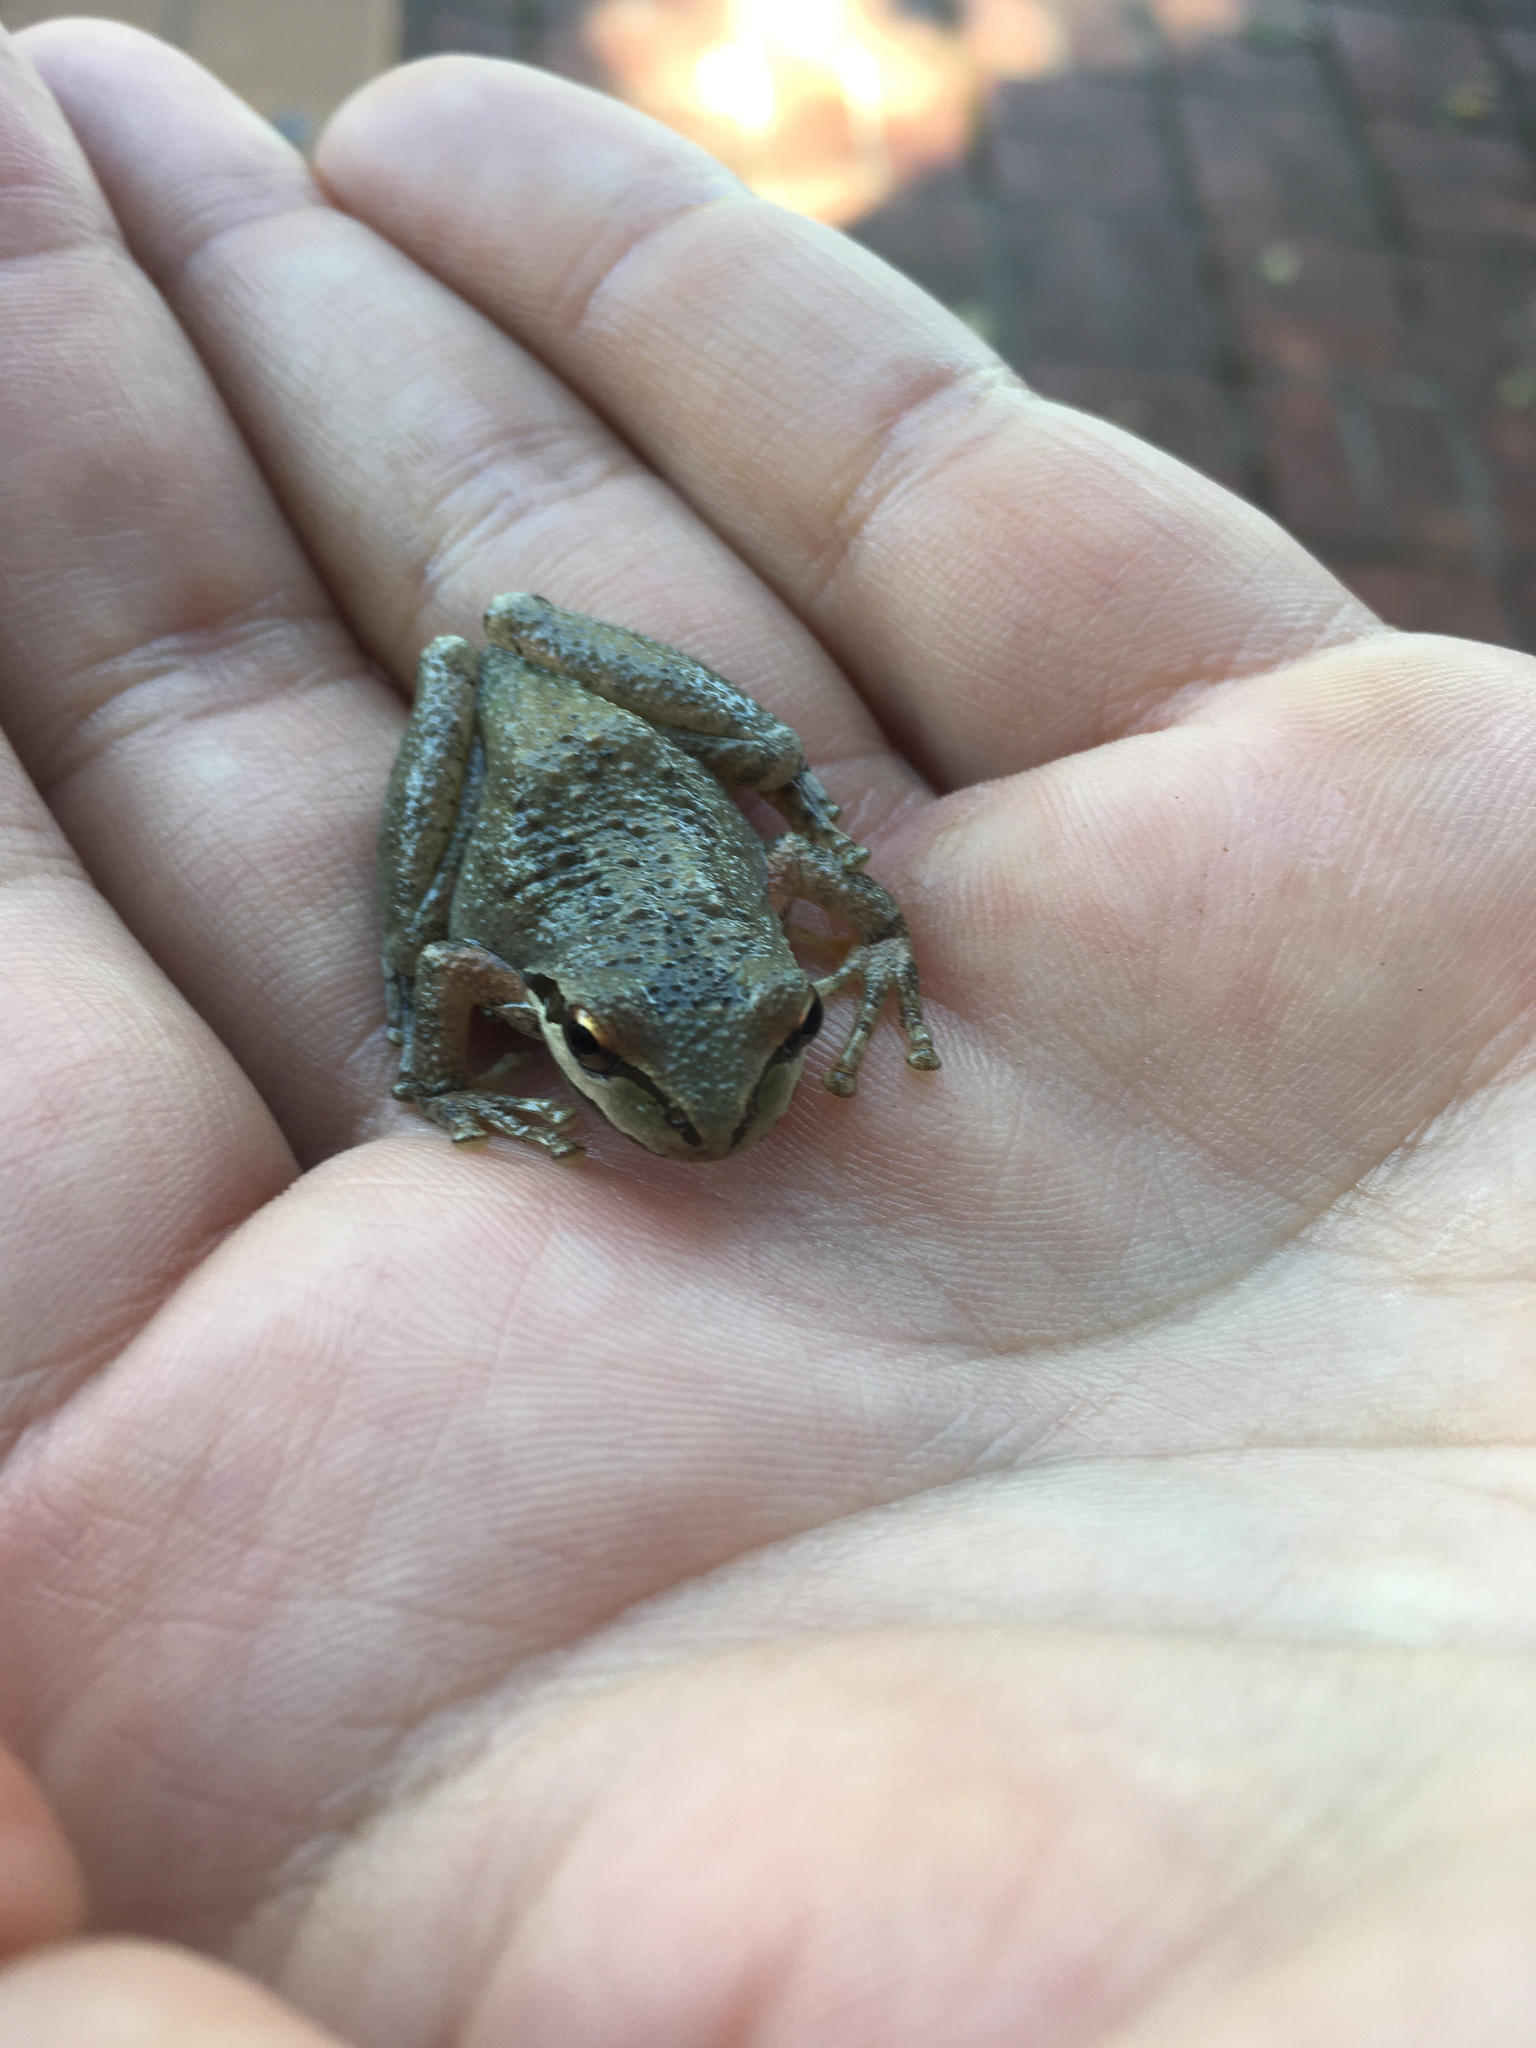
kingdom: Animalia
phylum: Chordata
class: Amphibia
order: Anura
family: Hylidae
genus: Pseudacris
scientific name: Pseudacris regilla
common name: Pacific chorus frog
